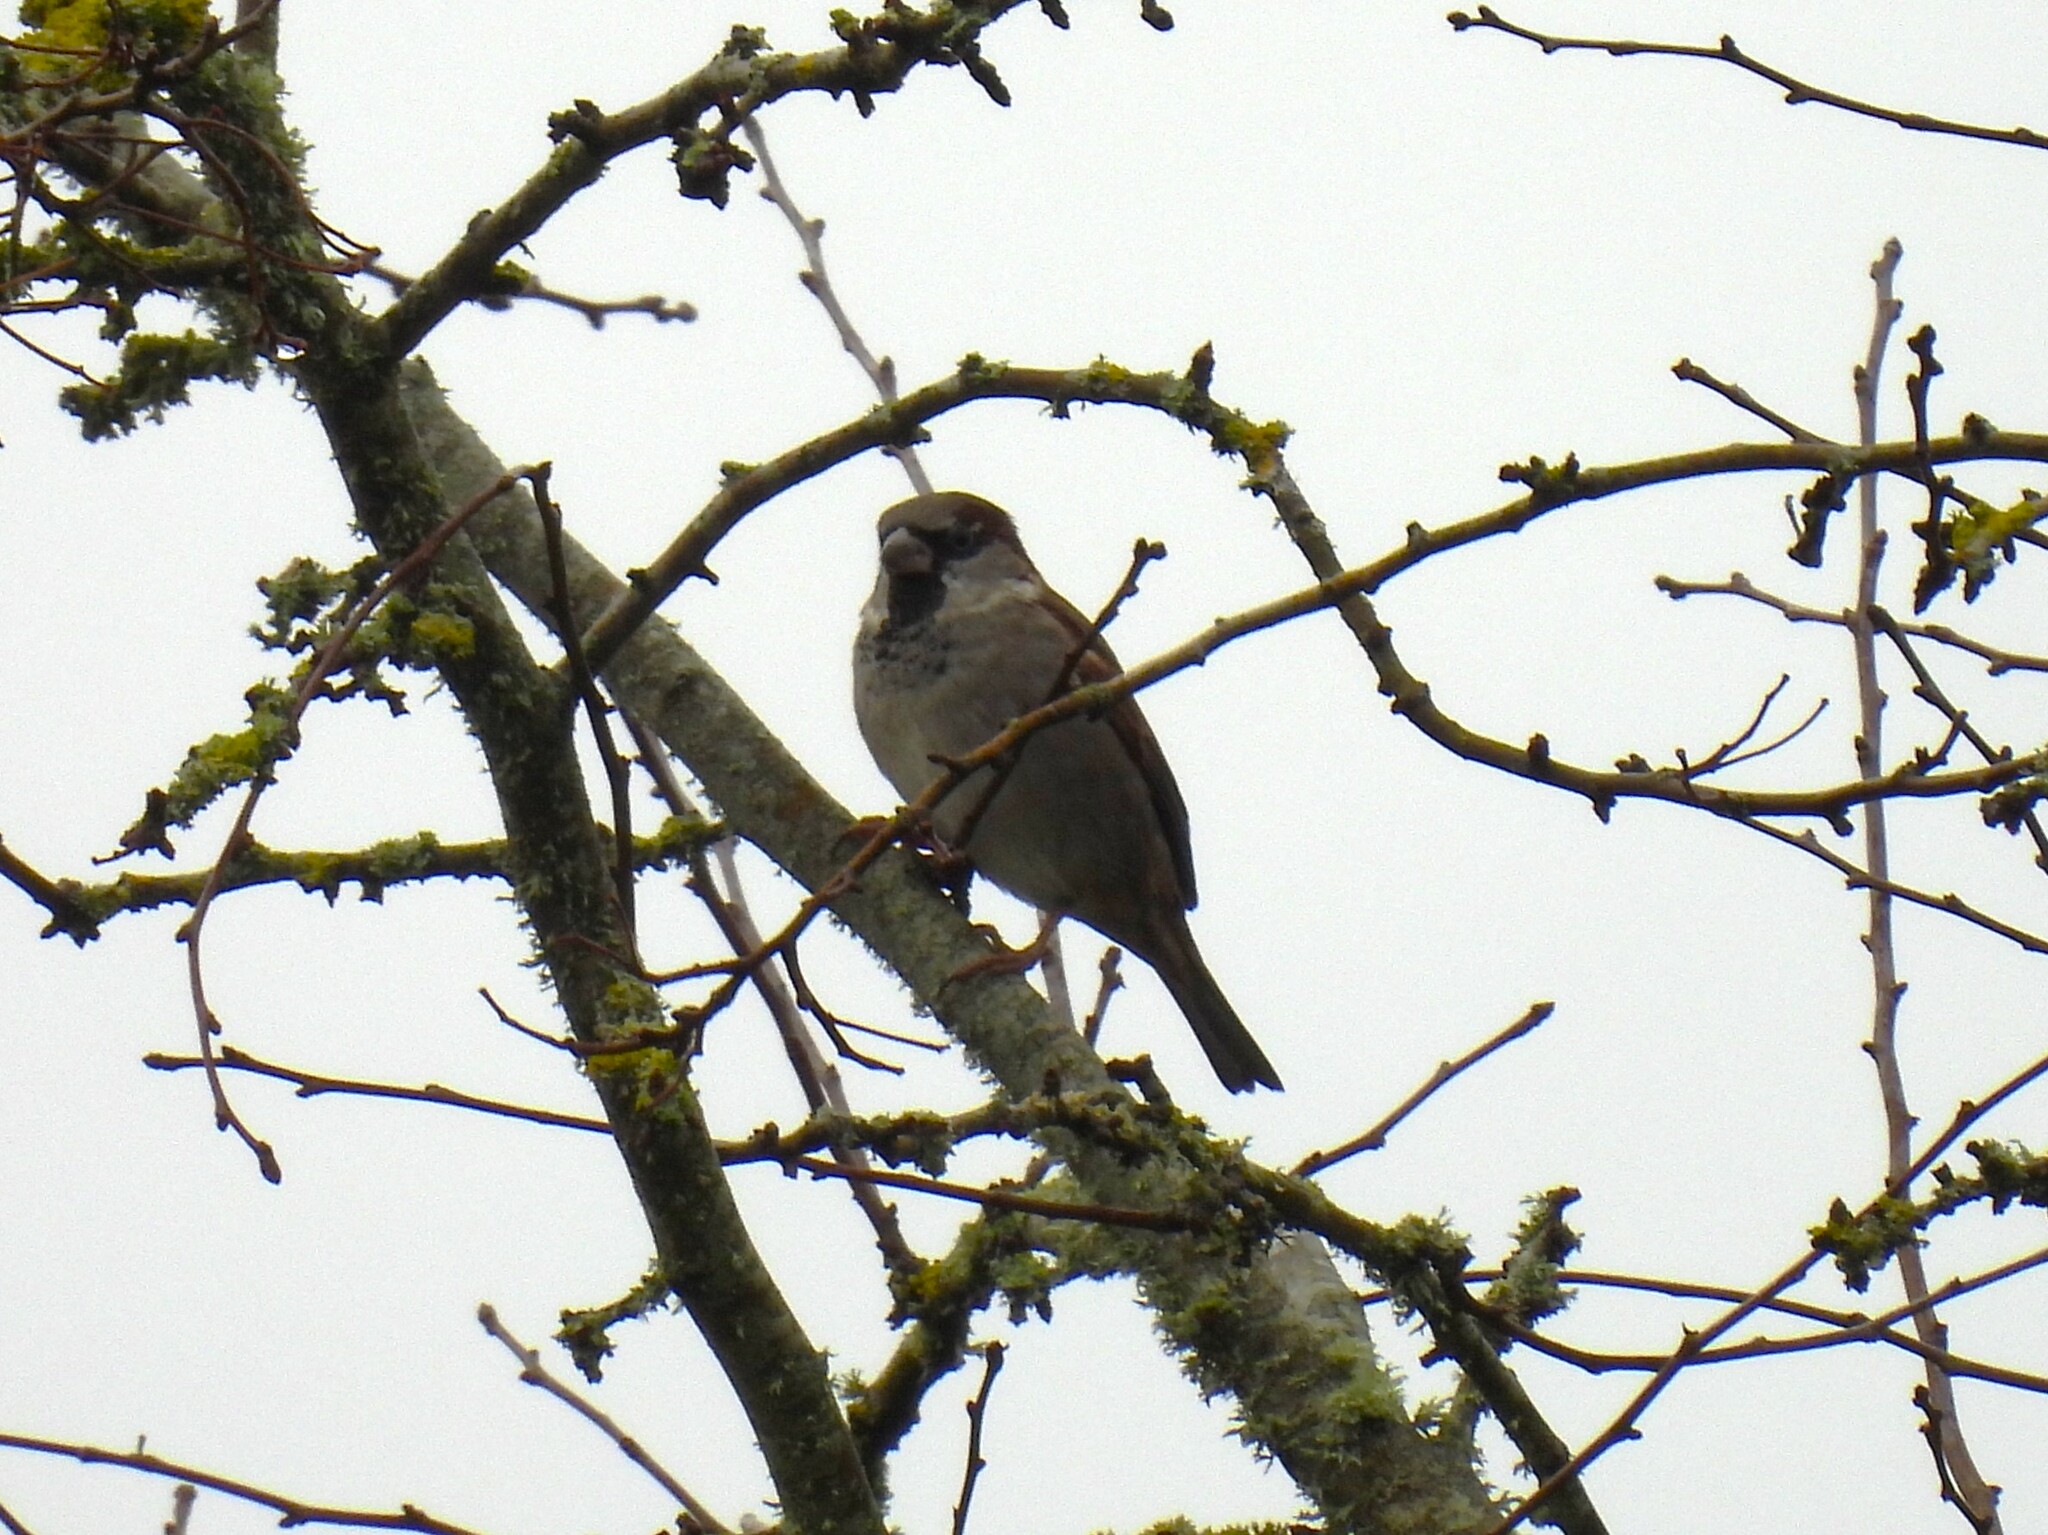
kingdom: Animalia
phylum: Chordata
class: Aves
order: Passeriformes
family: Passeridae
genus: Passer
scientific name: Passer domesticus
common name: House sparrow
